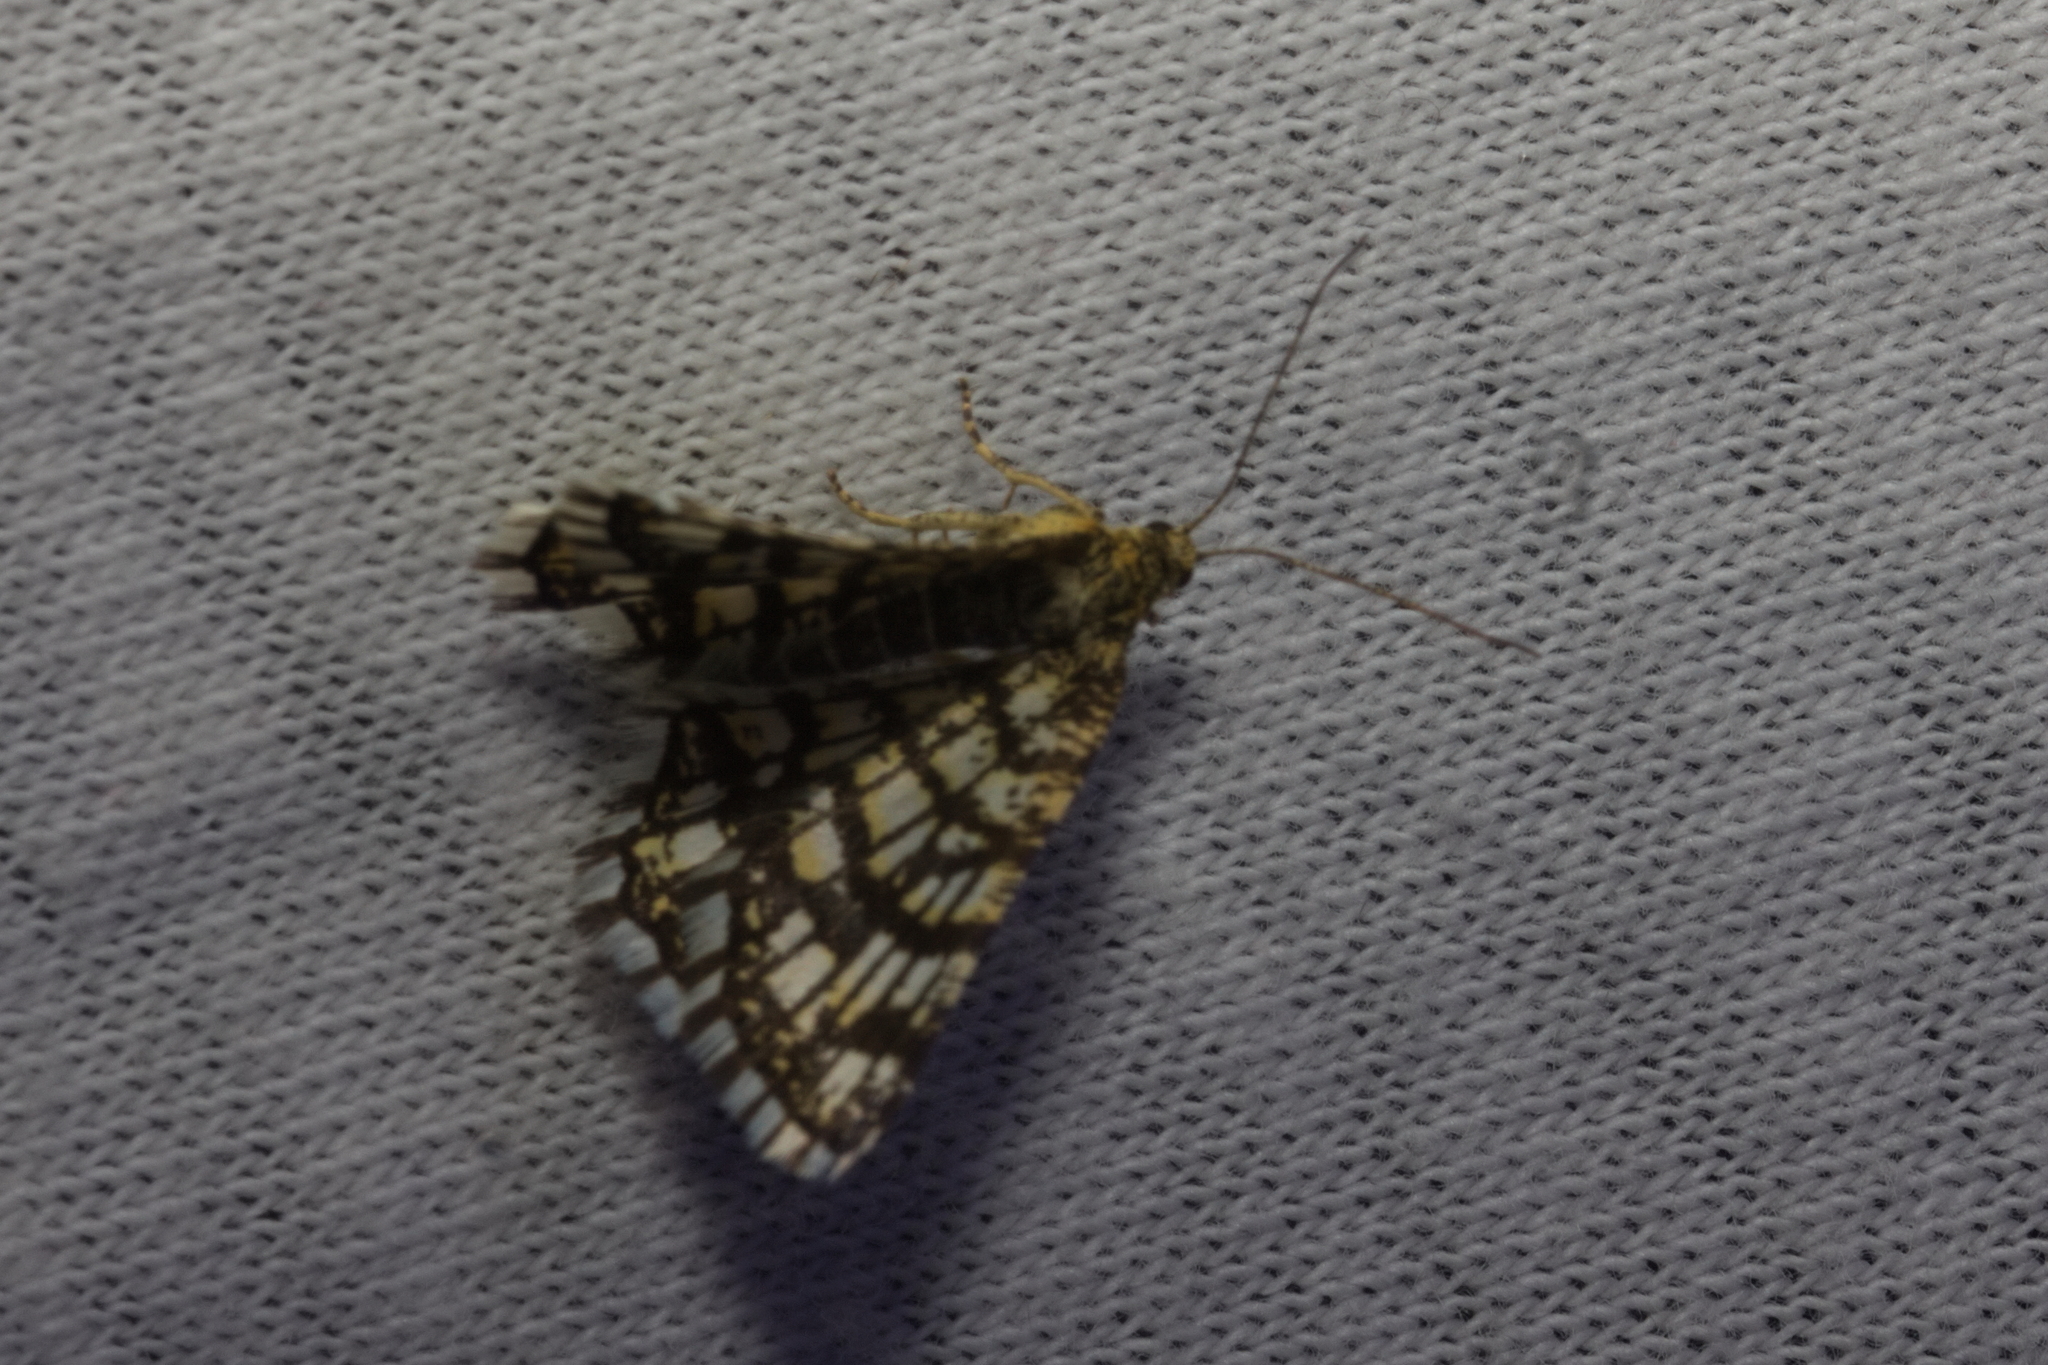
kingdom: Animalia
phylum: Arthropoda
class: Insecta
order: Lepidoptera
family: Geometridae
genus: Chiasmia
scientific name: Chiasmia clathrata
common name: Latticed heath
